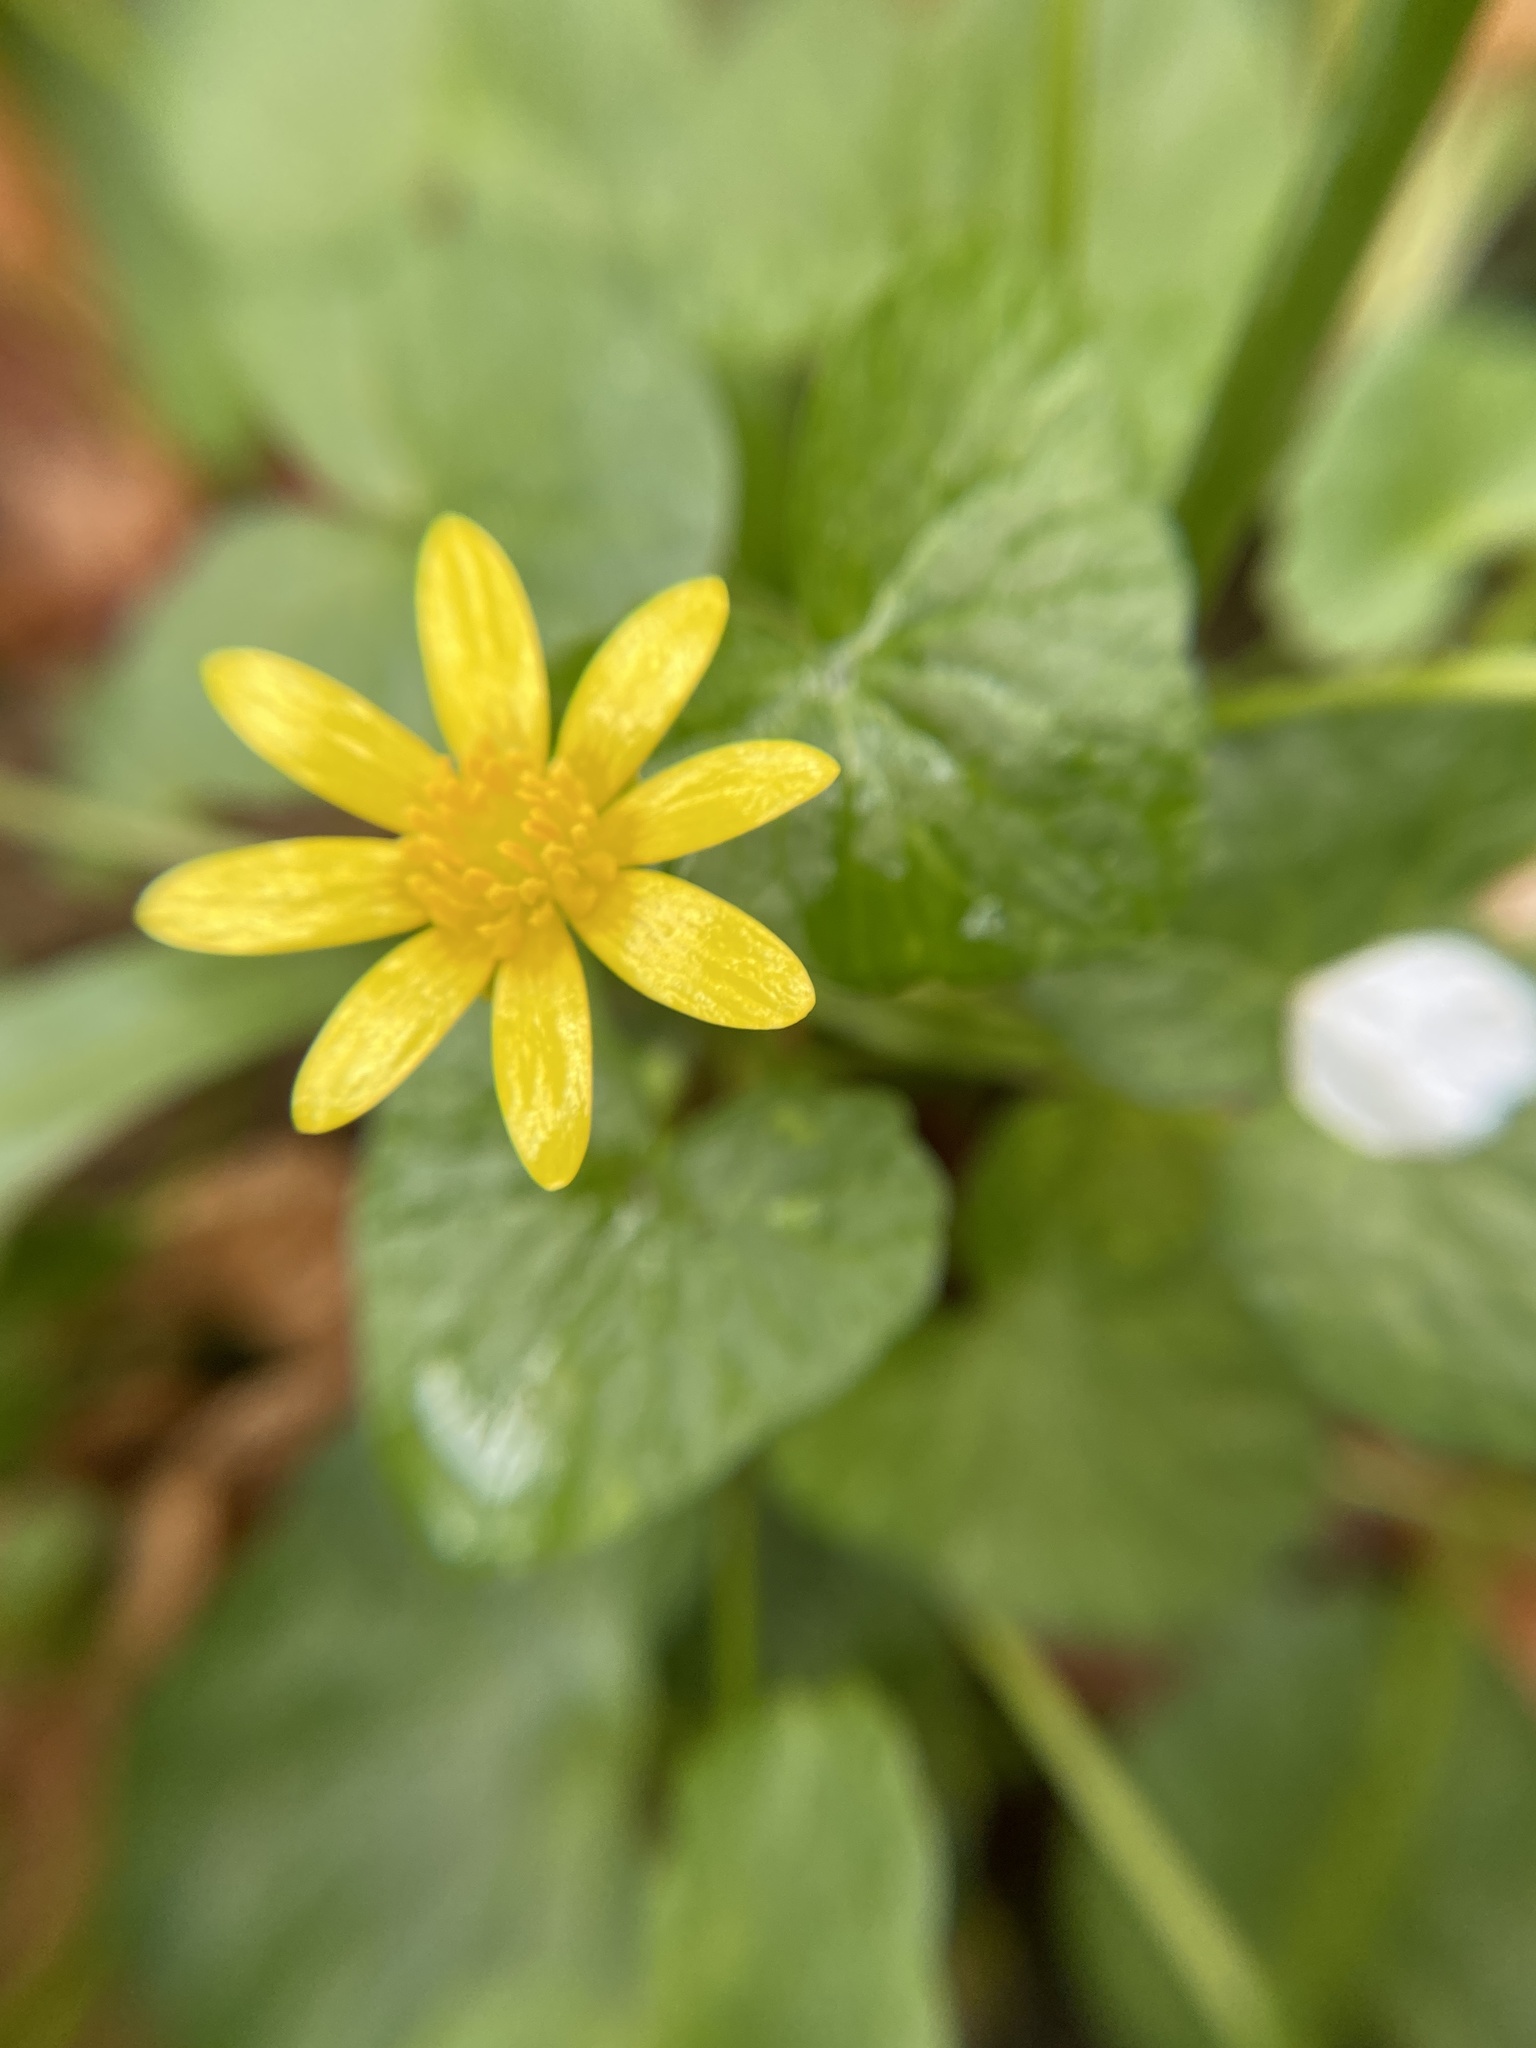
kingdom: Plantae
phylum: Tracheophyta
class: Magnoliopsida
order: Ranunculales
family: Ranunculaceae
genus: Ficaria
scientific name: Ficaria verna
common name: Lesser celandine
